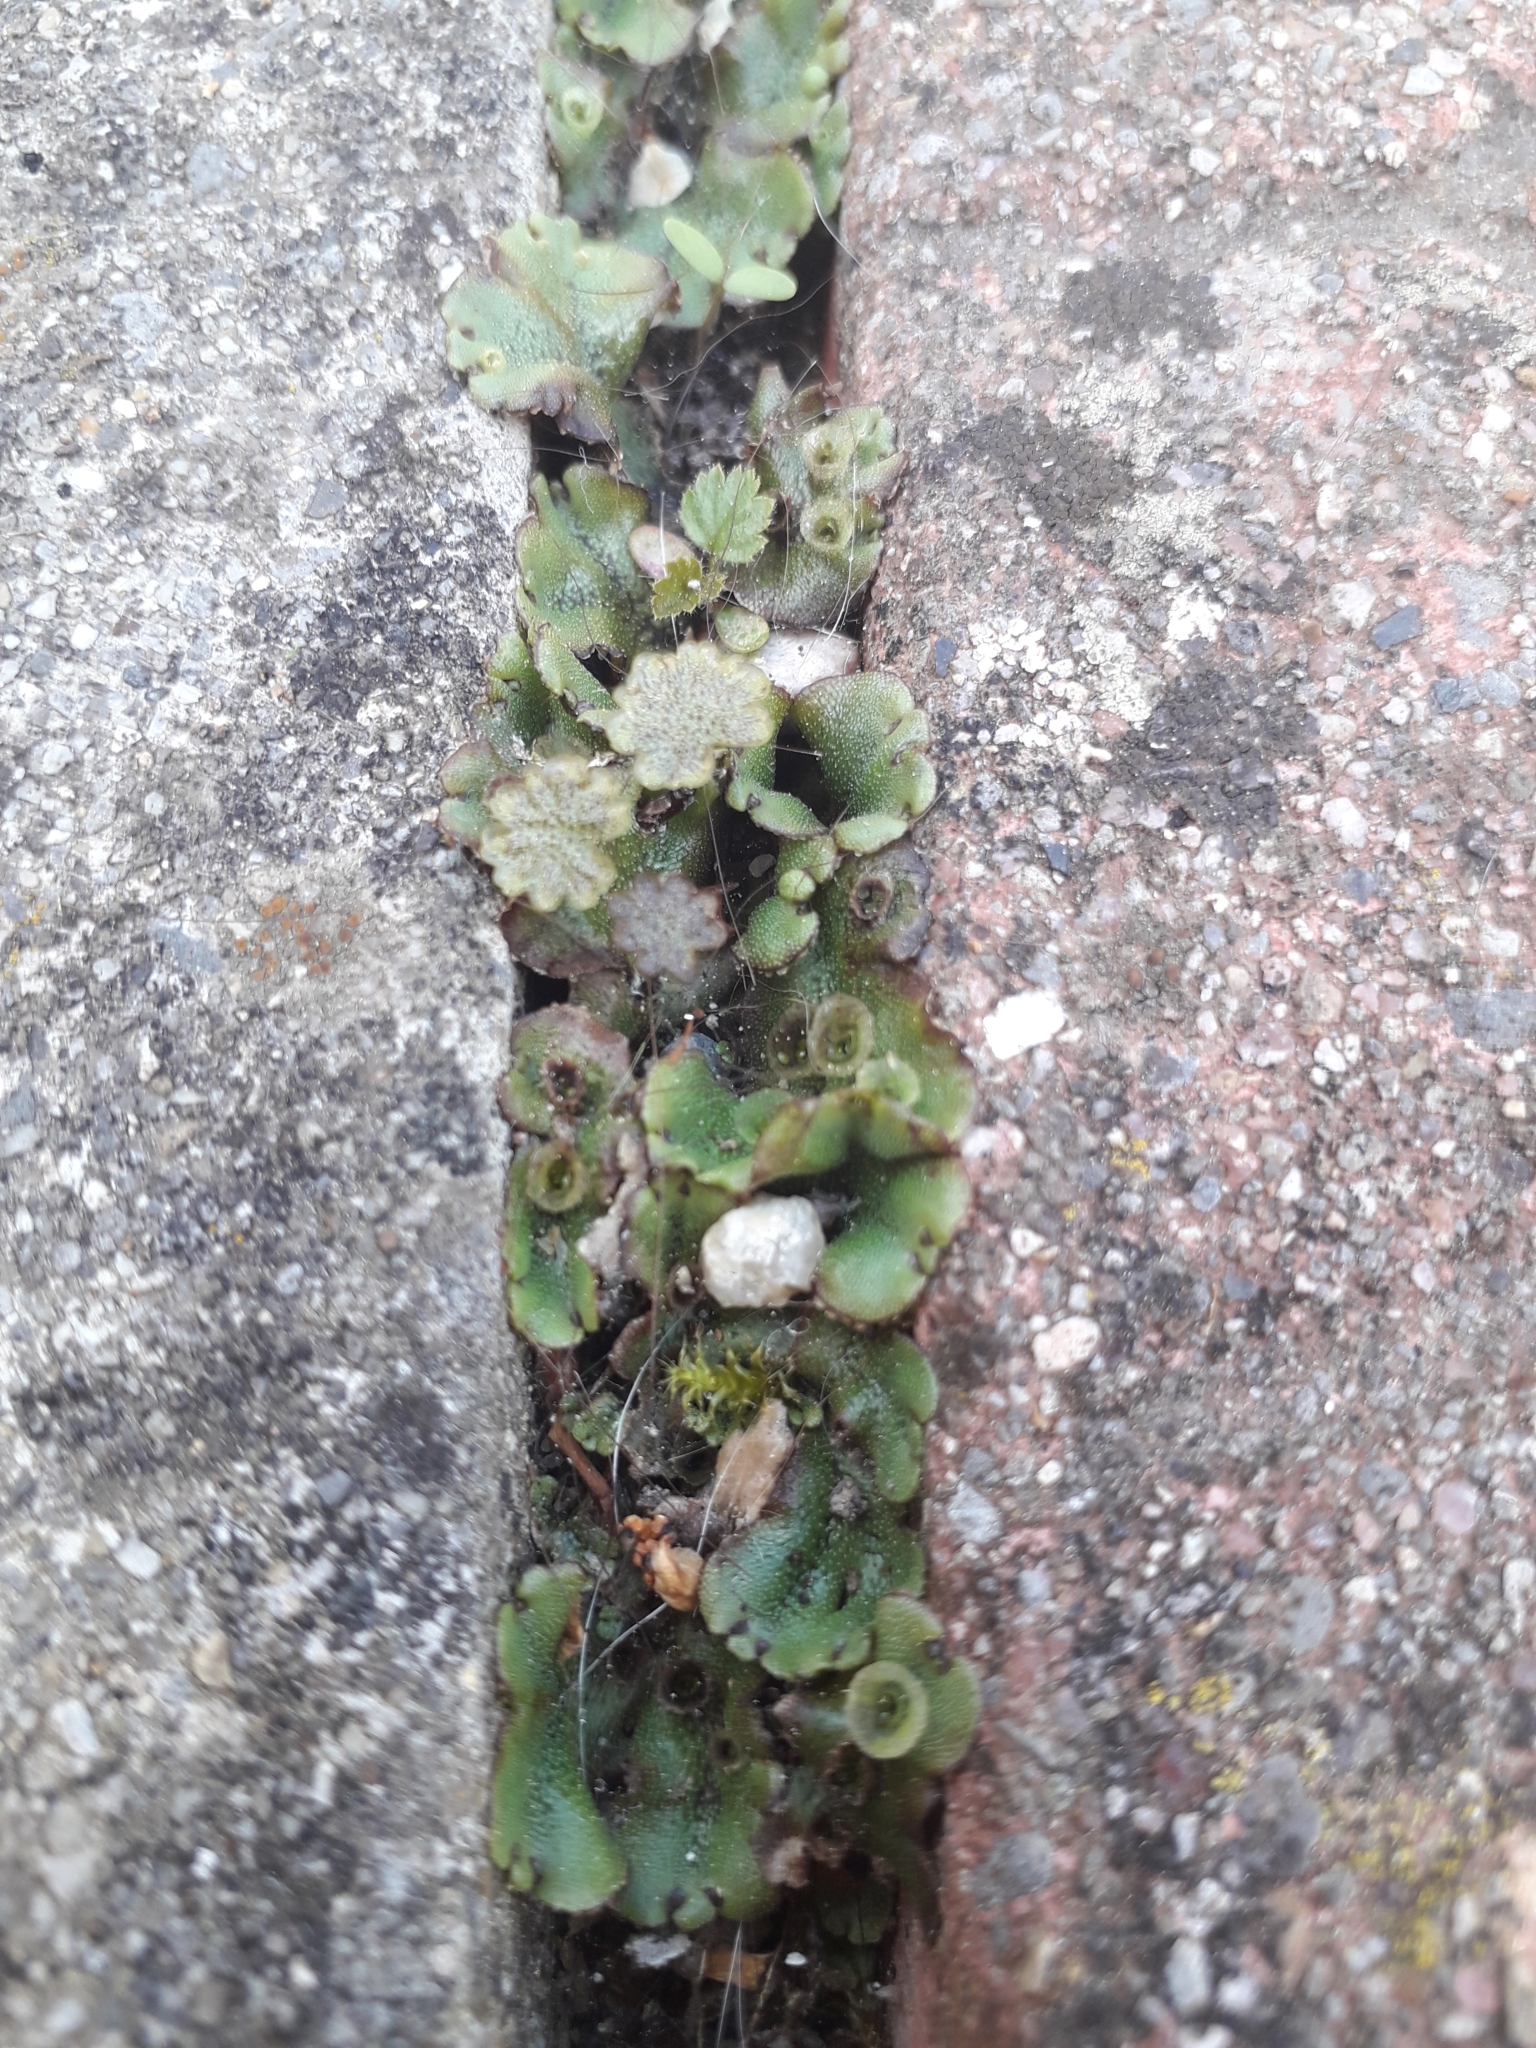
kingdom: Plantae
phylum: Marchantiophyta
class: Marchantiopsida
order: Marchantiales
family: Marchantiaceae
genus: Marchantia
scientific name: Marchantia polymorpha
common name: Common liverwort
